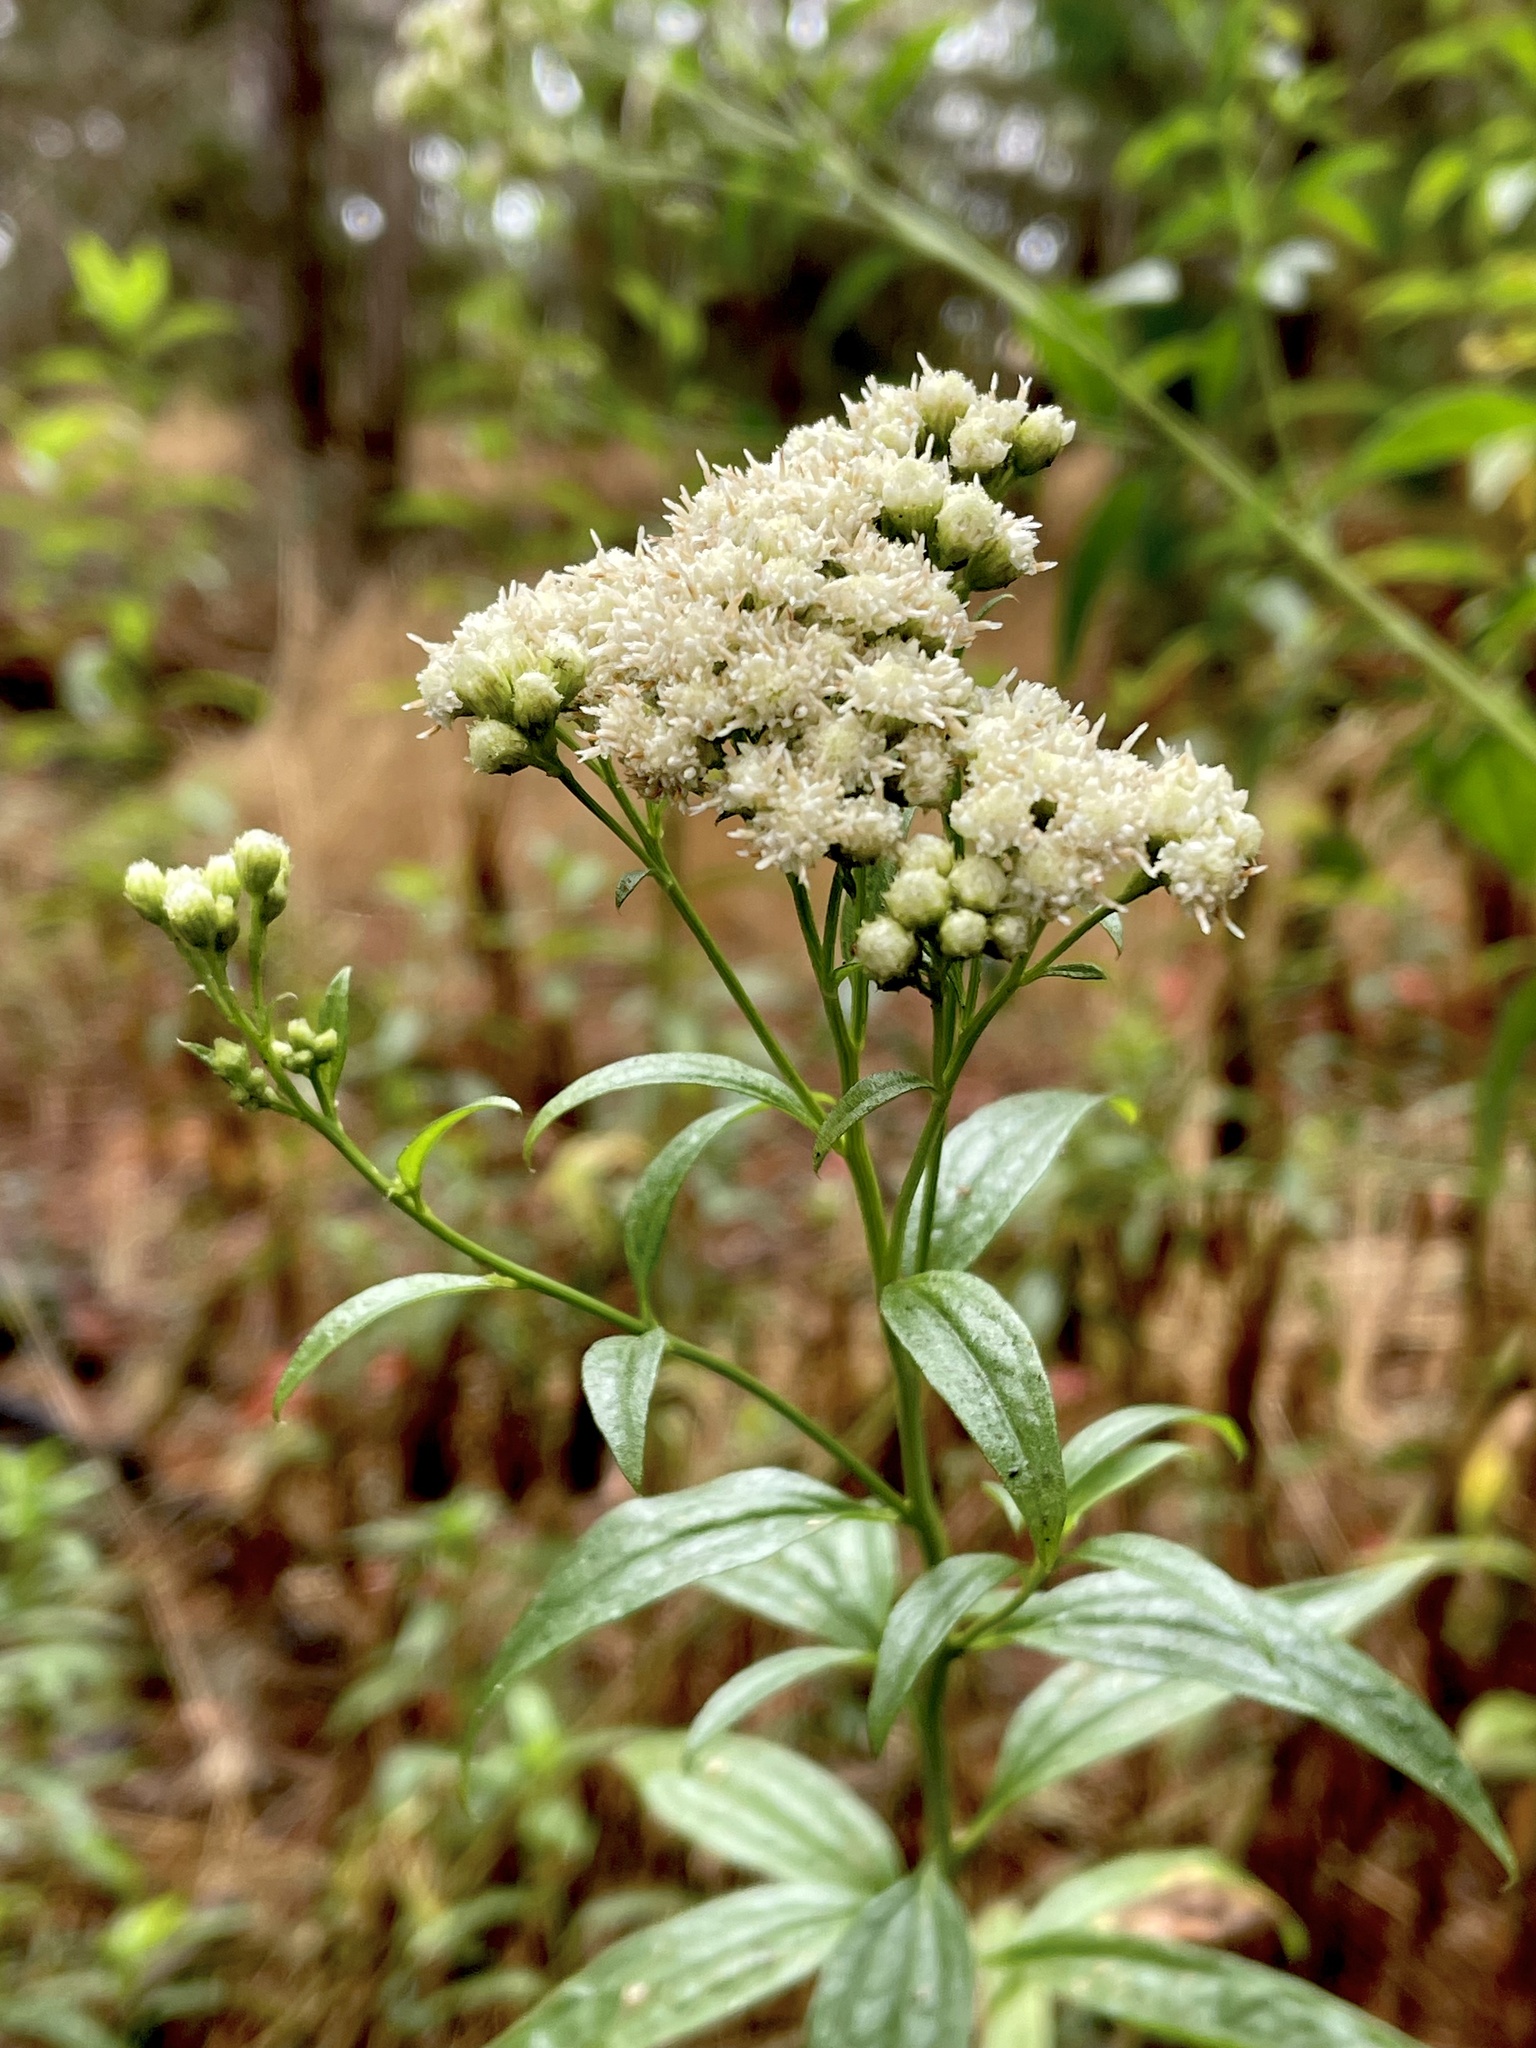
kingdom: Plantae
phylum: Tracheophyta
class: Magnoliopsida
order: Asterales
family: Asteraceae
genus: Baccharis
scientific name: Baccharis glutinosa
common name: Saltmarsh baccharis
